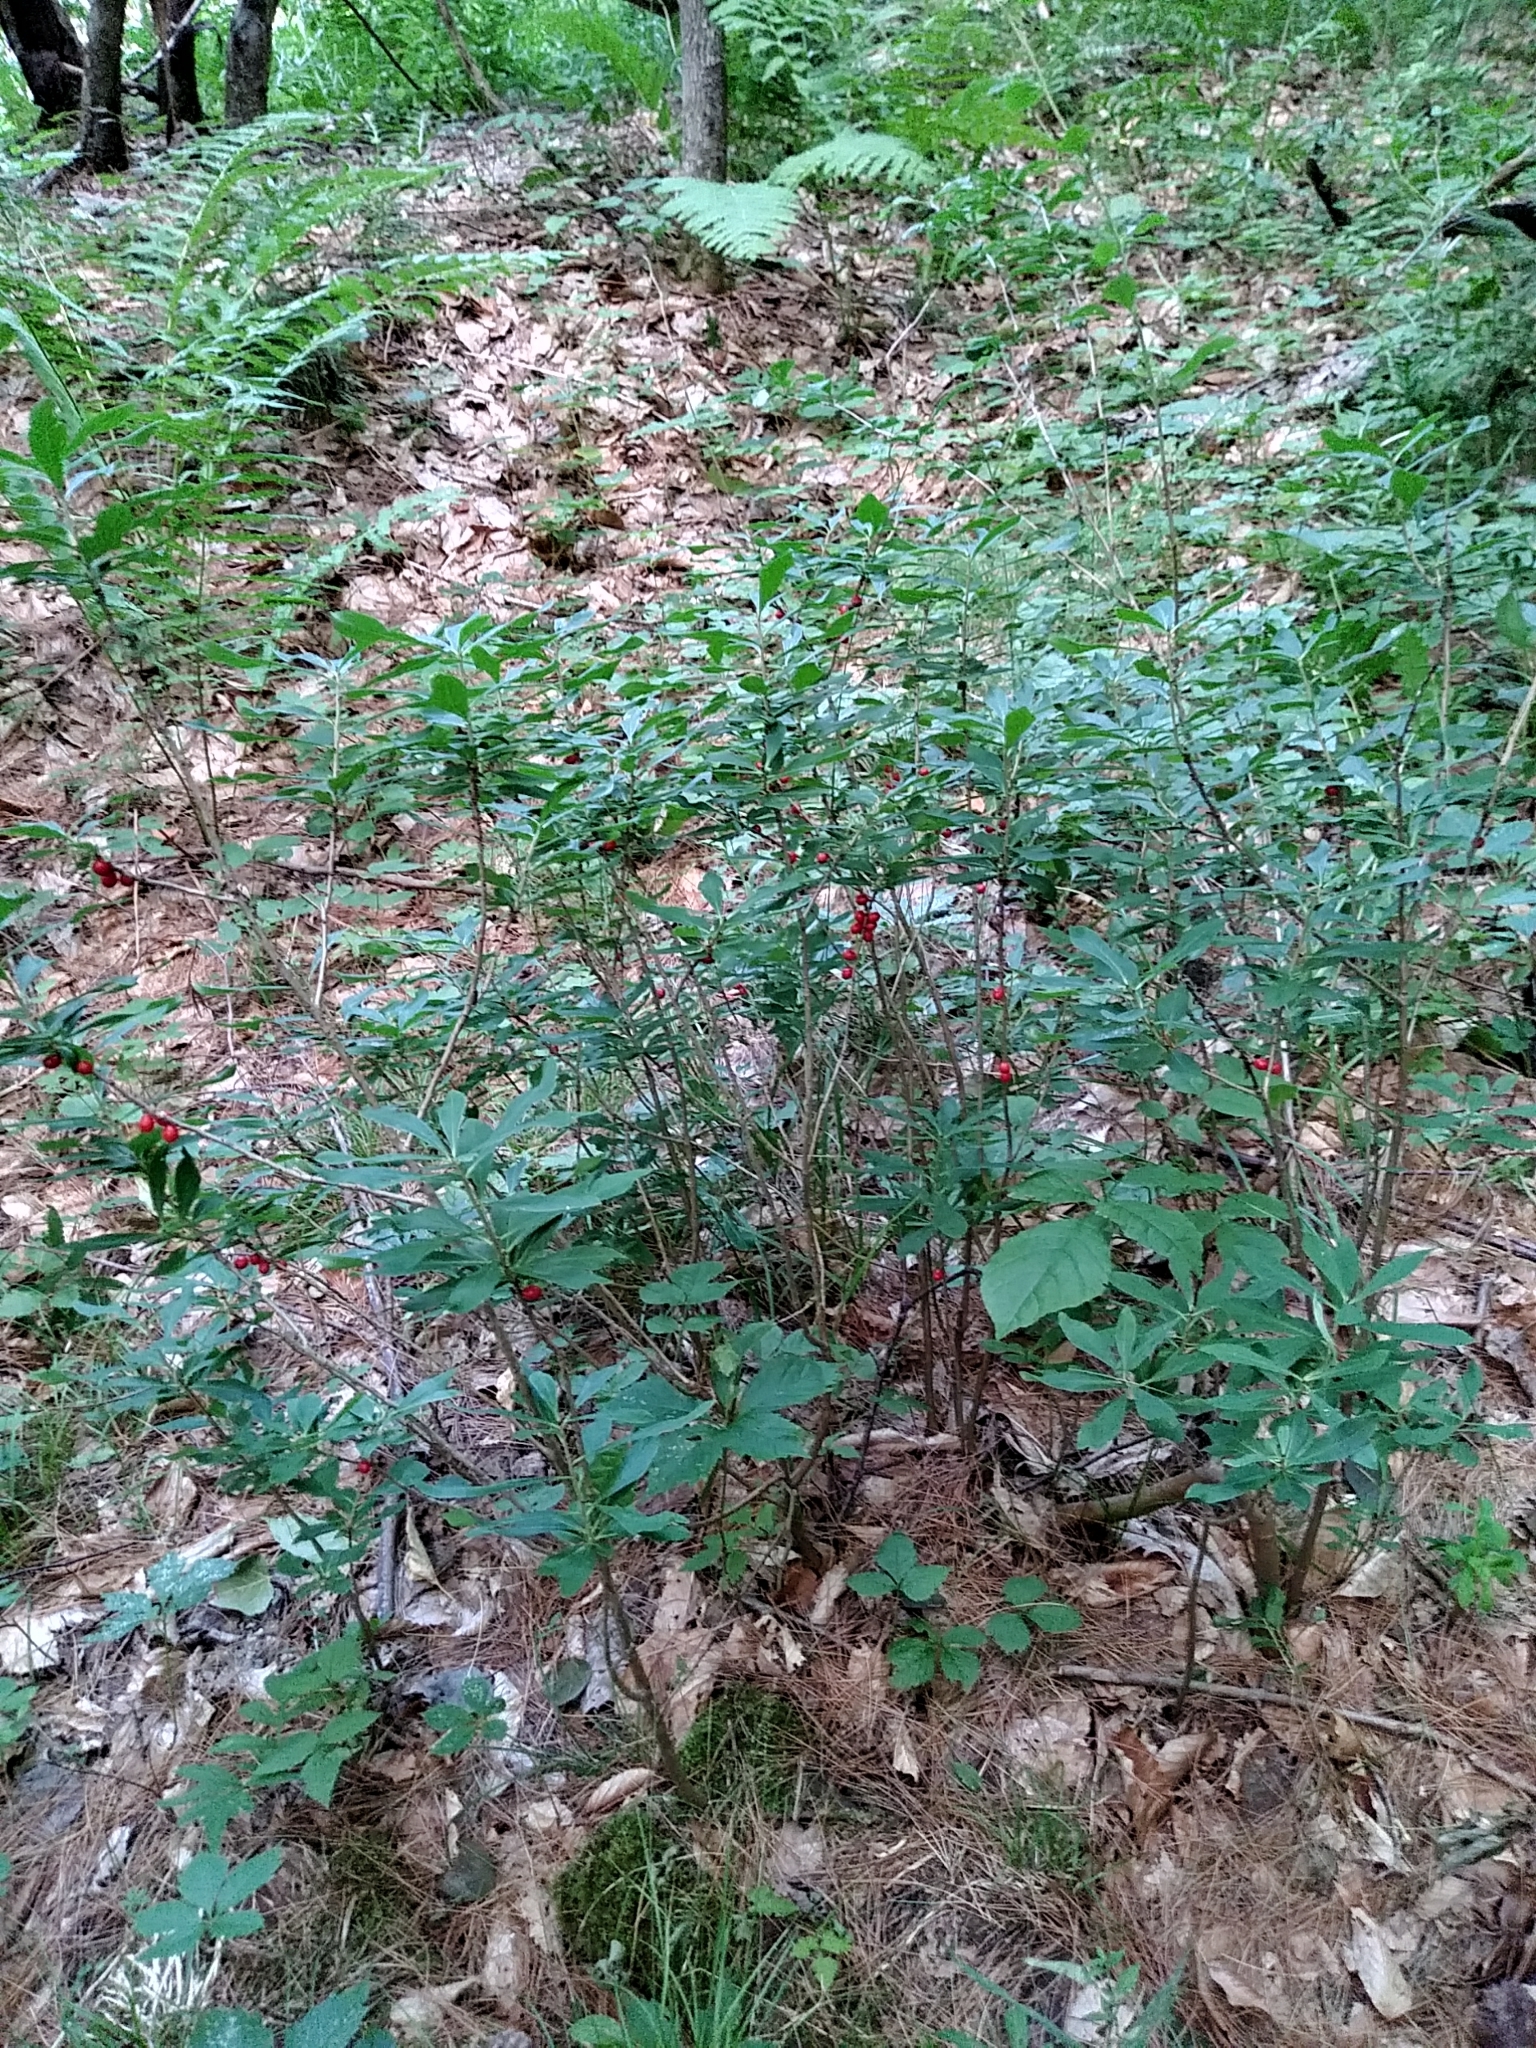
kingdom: Plantae
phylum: Tracheophyta
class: Magnoliopsida
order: Malvales
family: Thymelaeaceae
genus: Daphne
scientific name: Daphne mezereum
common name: Mezereon
